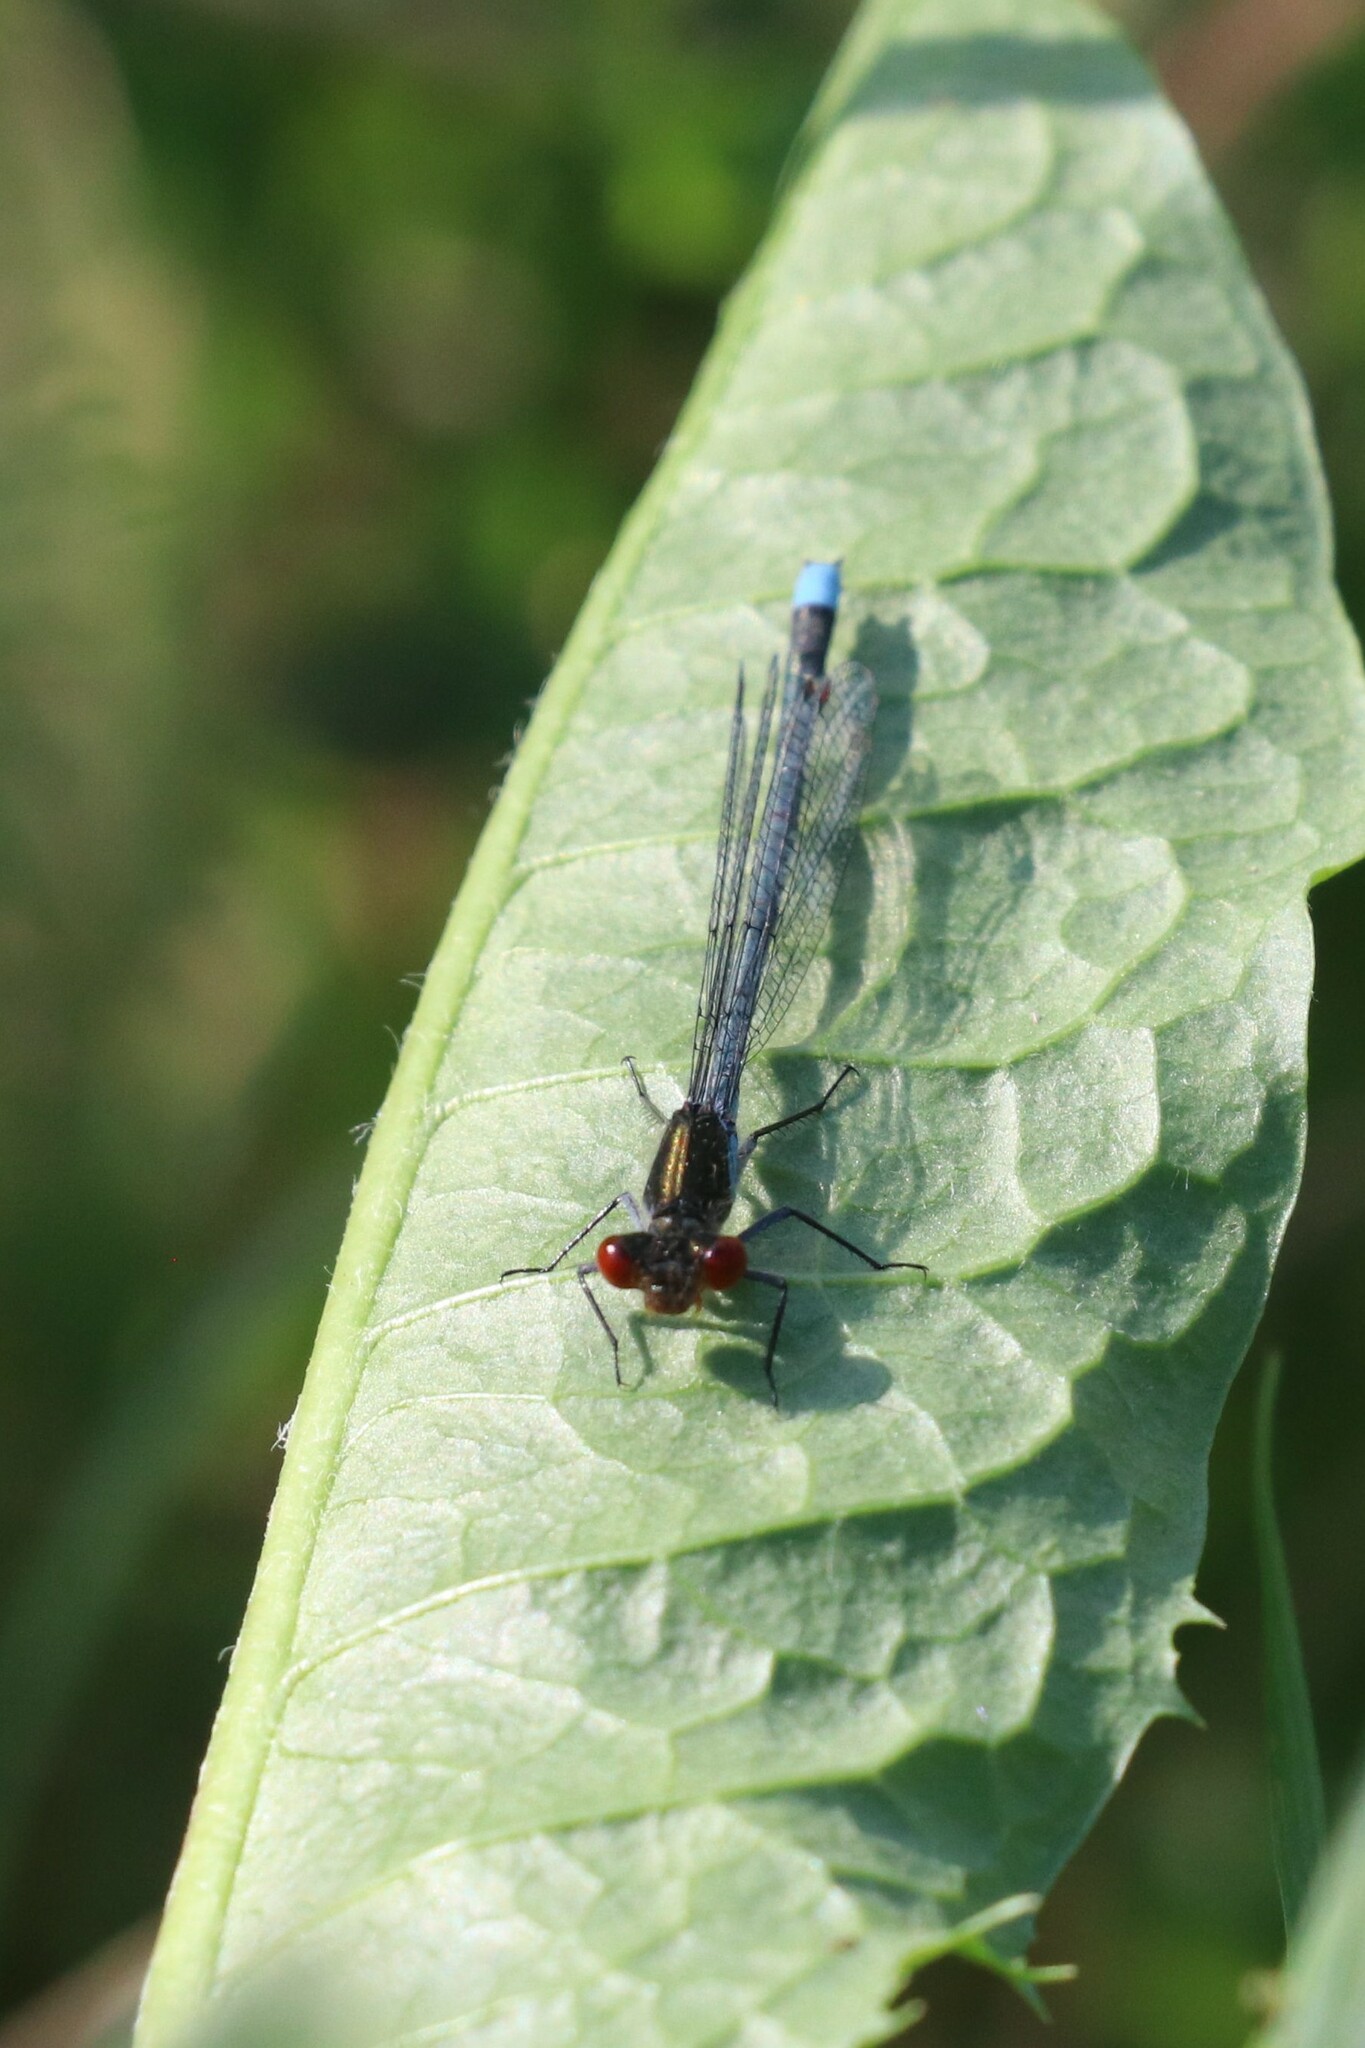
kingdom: Animalia
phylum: Arthropoda
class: Insecta
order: Odonata
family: Coenagrionidae
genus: Erythromma
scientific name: Erythromma najas
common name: Red-eyed damselfly
